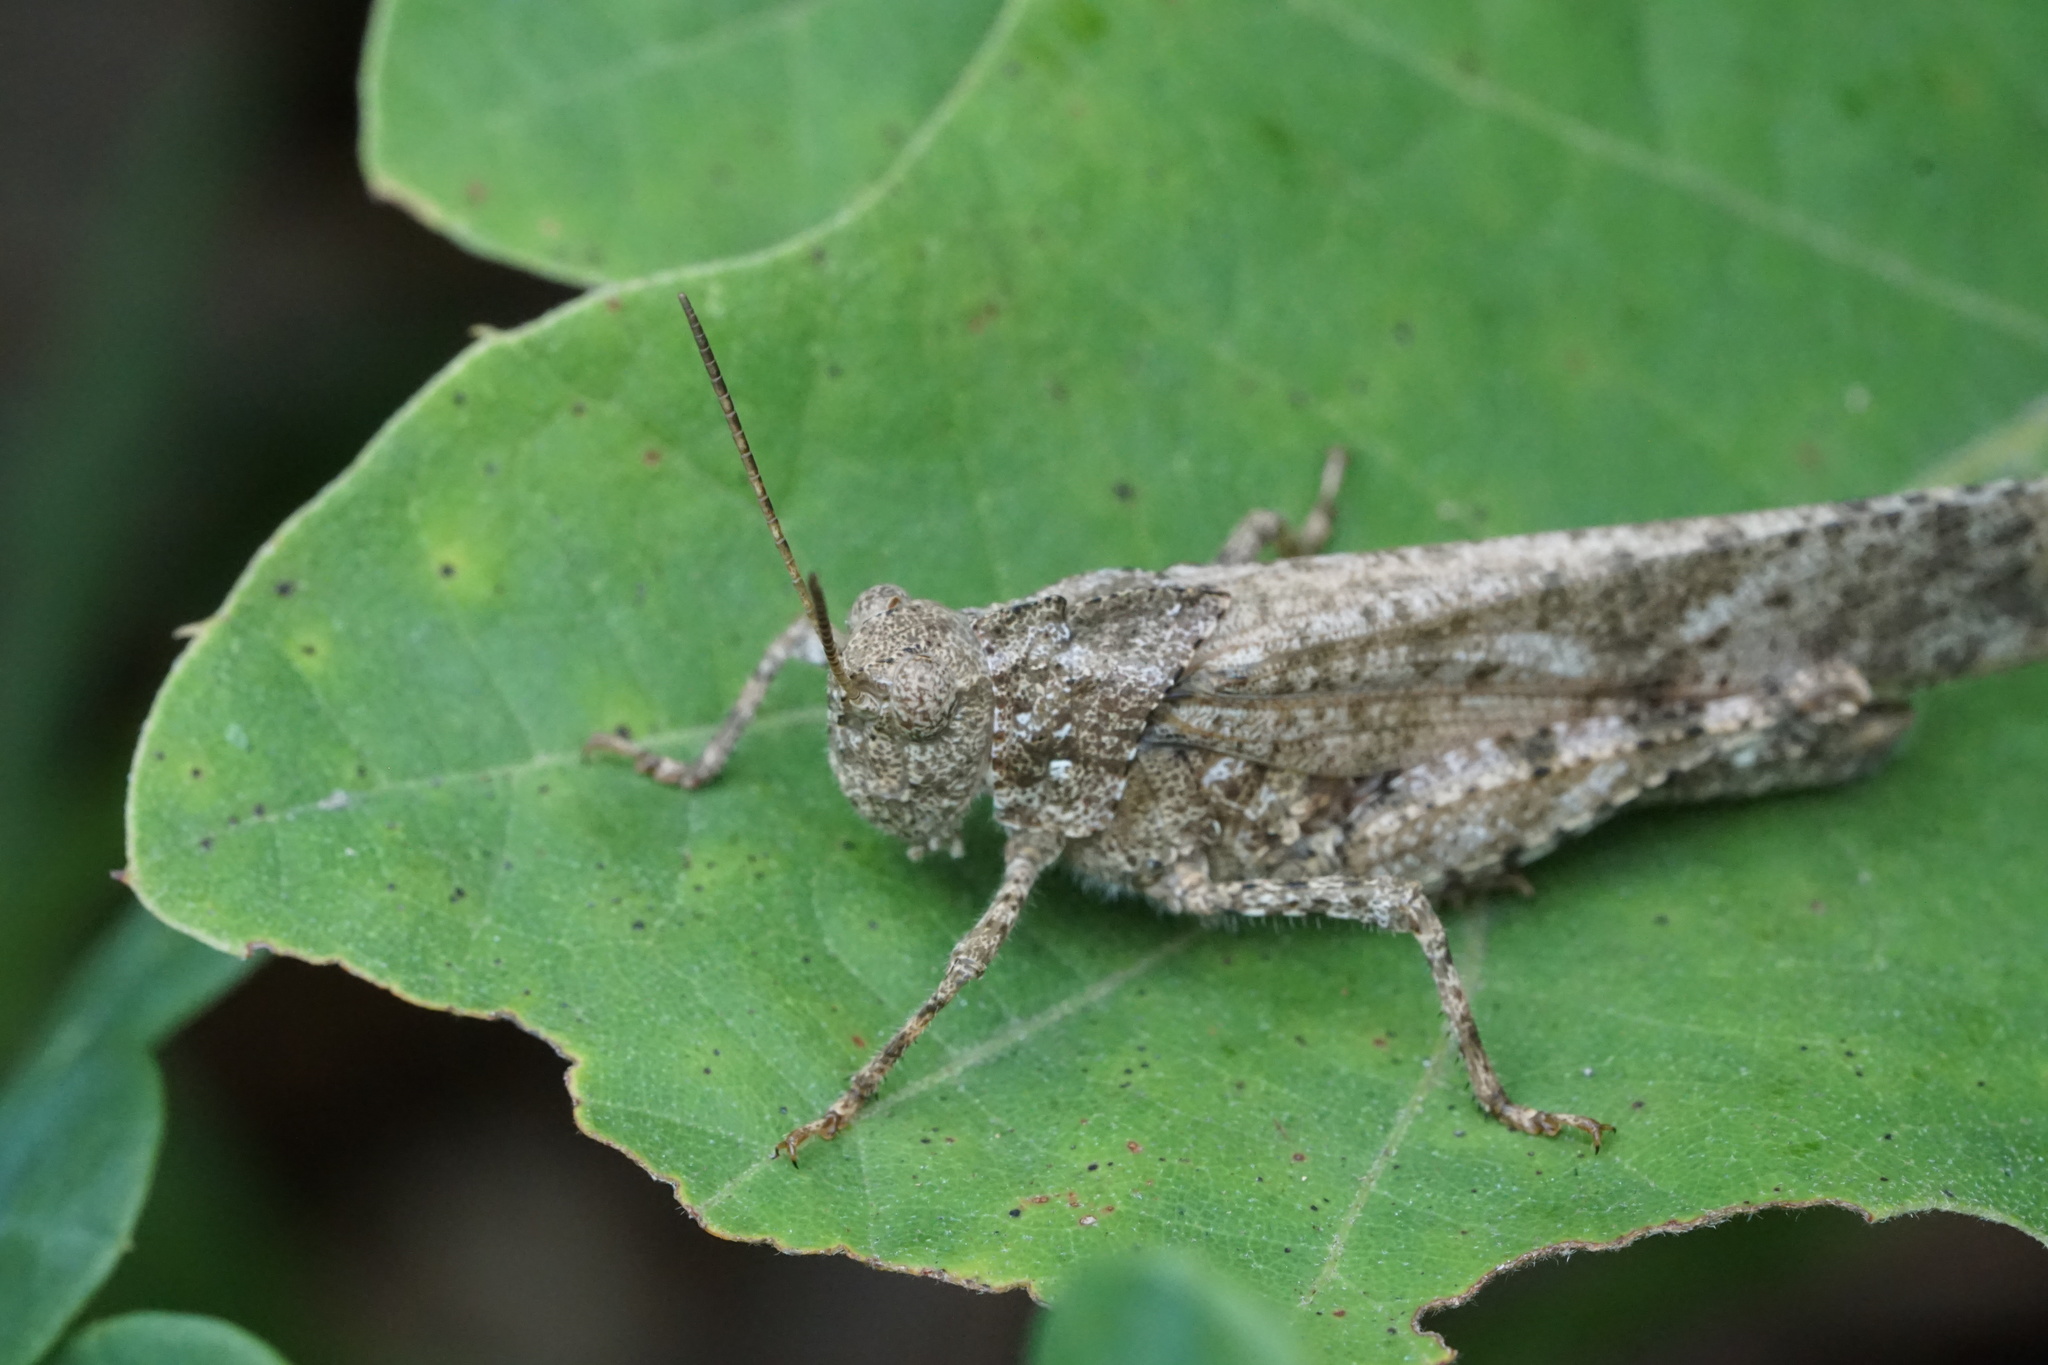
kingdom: Animalia
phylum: Arthropoda
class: Insecta
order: Orthoptera
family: Acrididae
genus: Dissosteira
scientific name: Dissosteira carolina
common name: Carolina grasshopper
